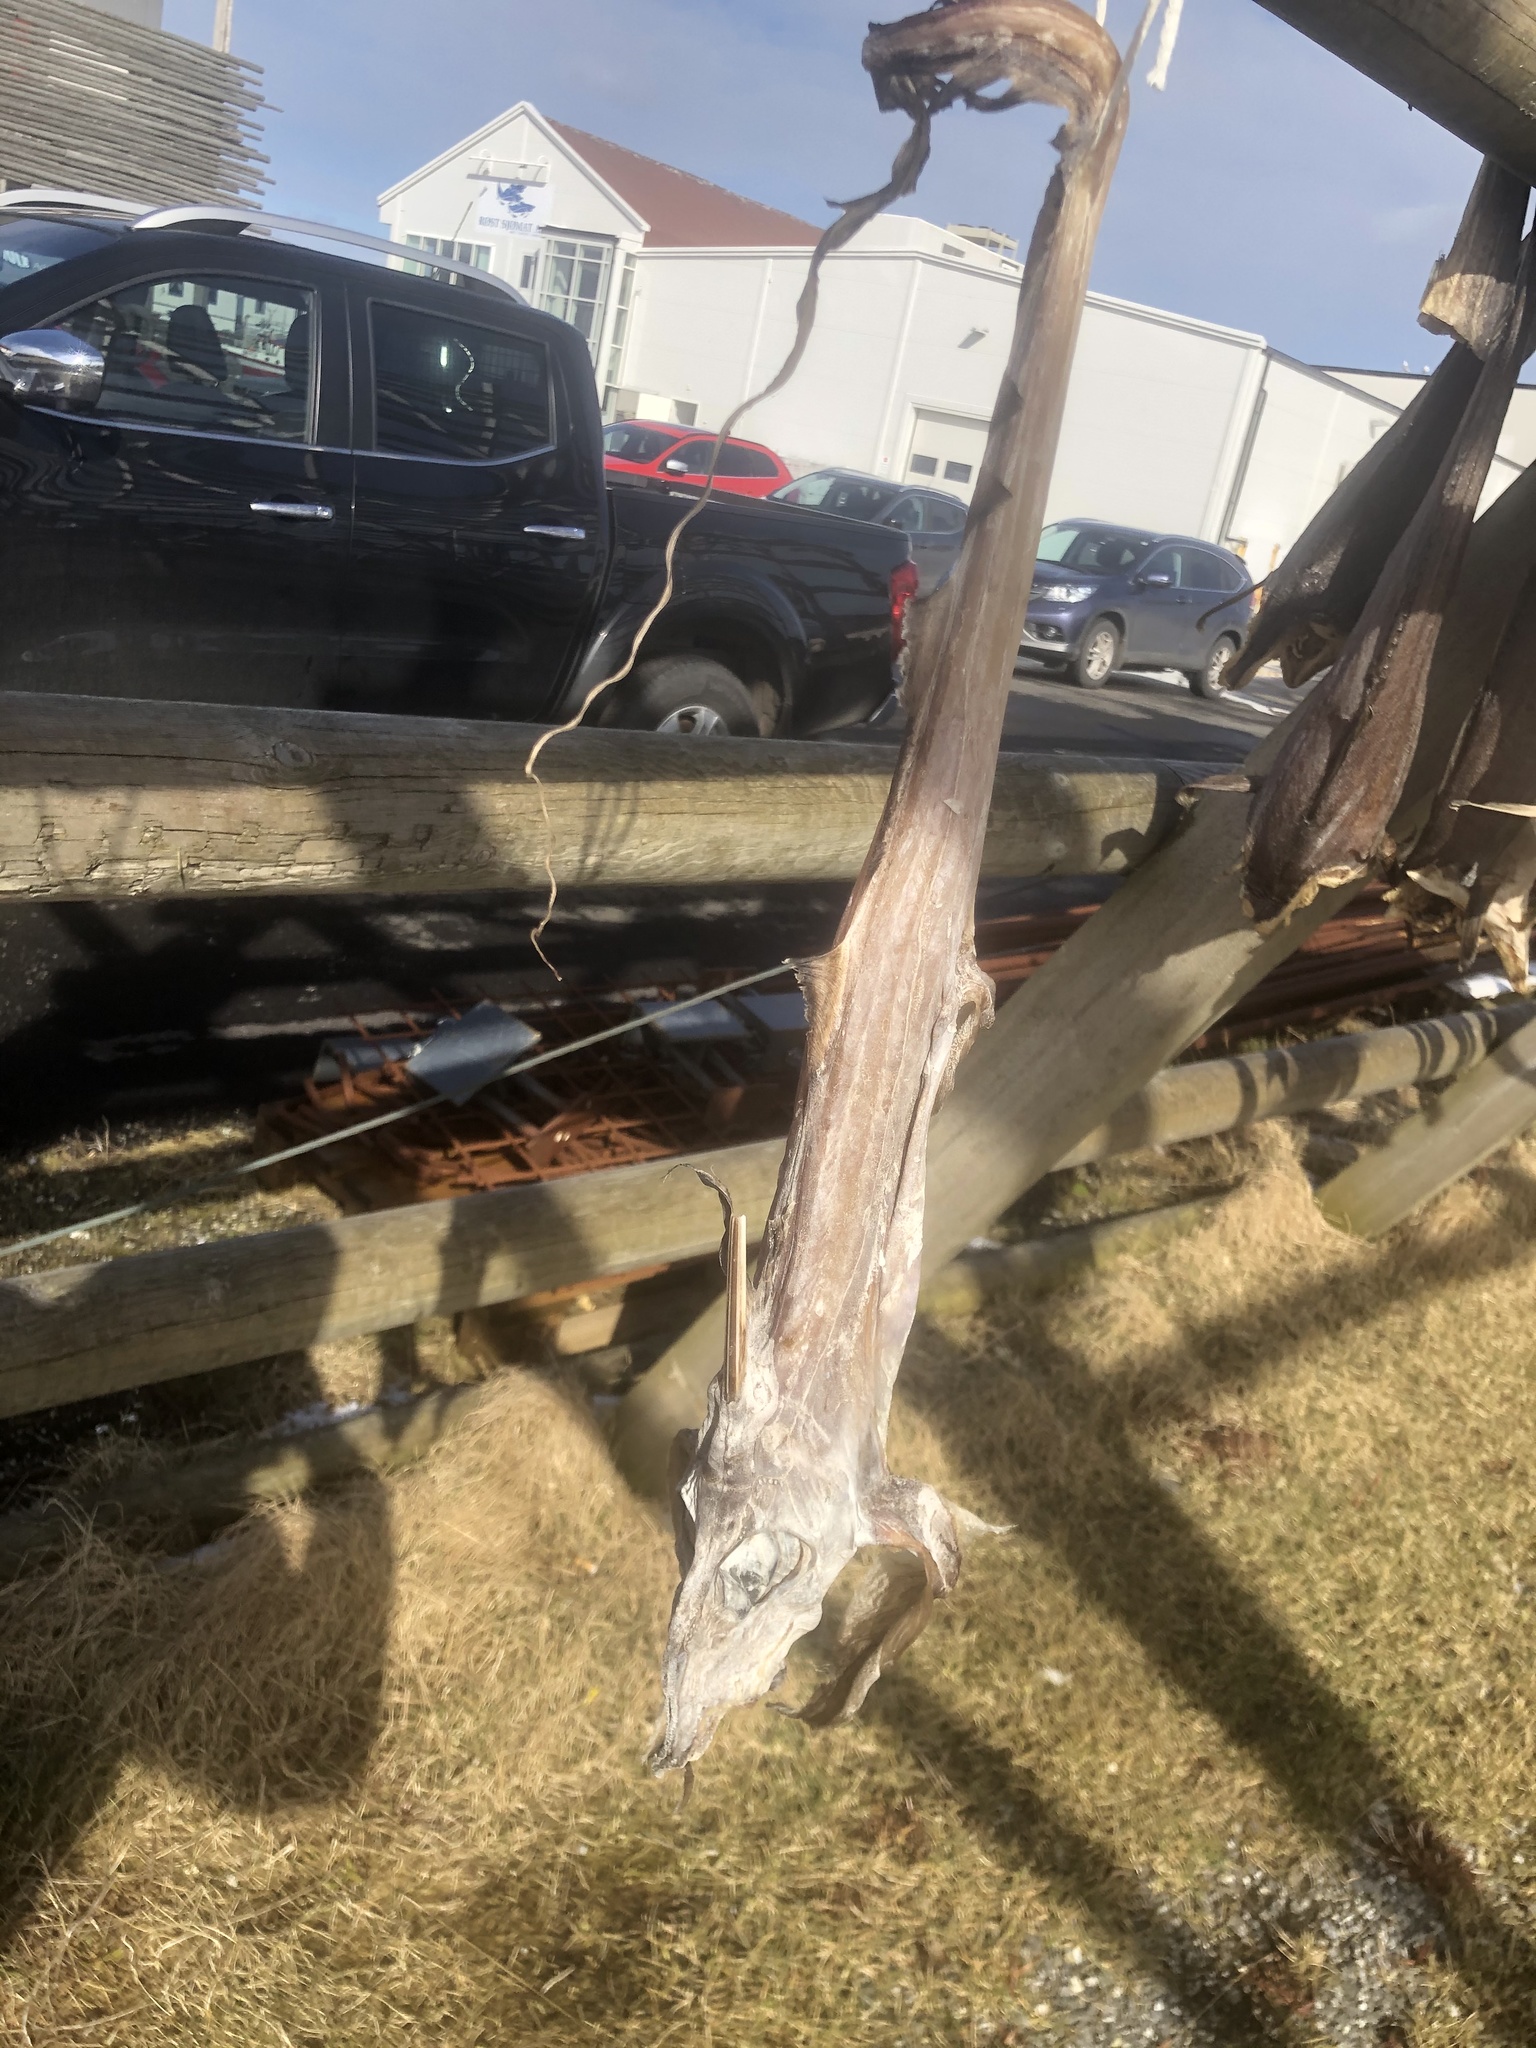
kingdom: Animalia
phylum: Chordata
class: Holocephali
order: Chimaeriformes
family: Chimaeridae
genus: Chimaera
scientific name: Chimaera monstrosa
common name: Rabbitfish
